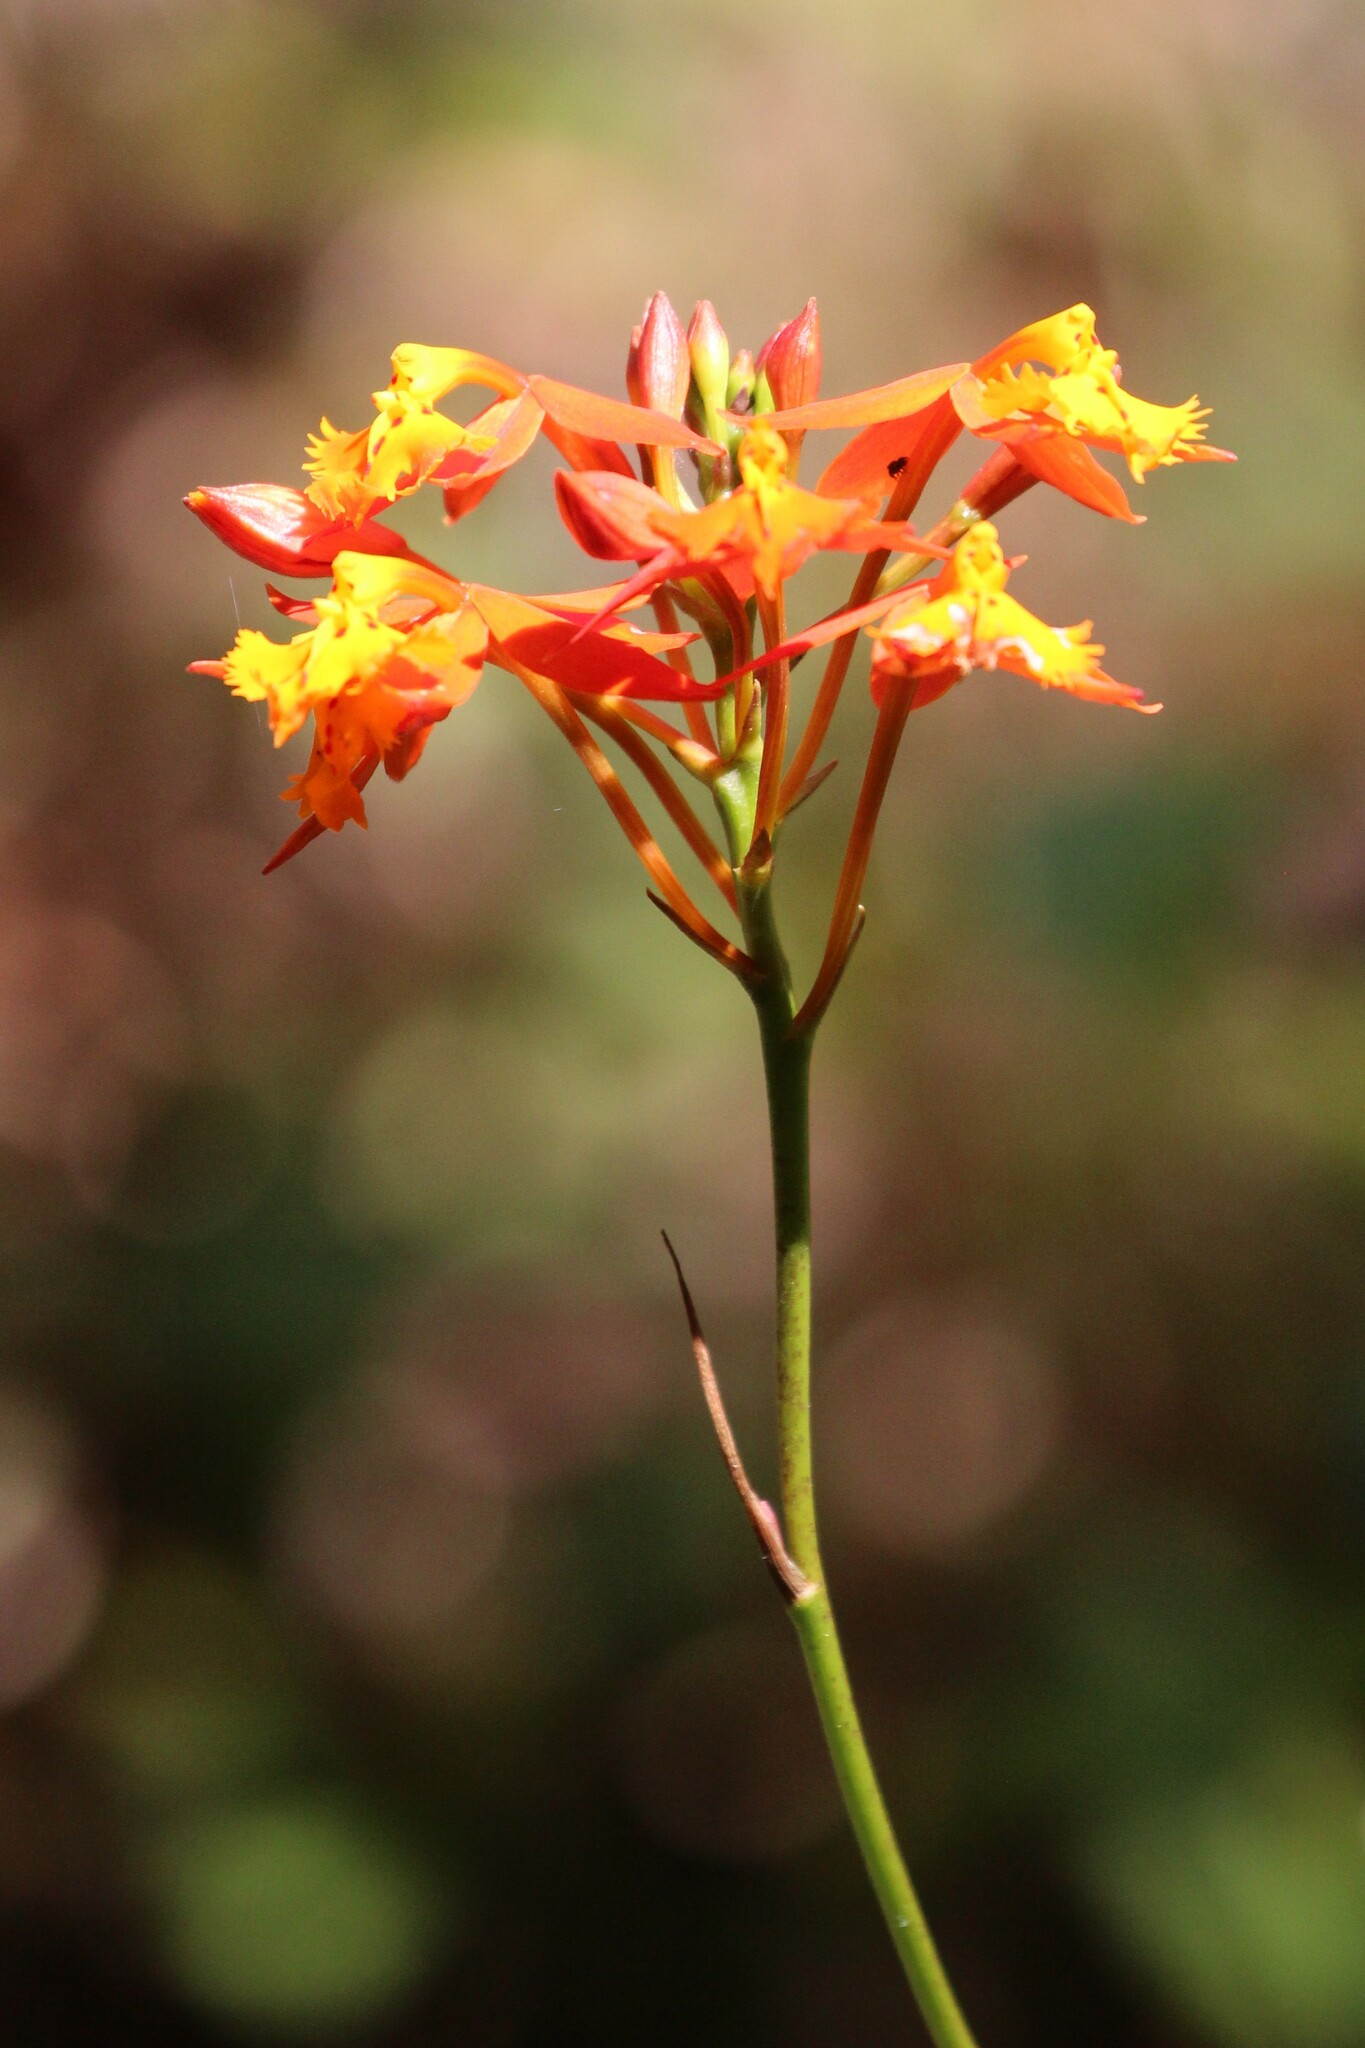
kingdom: Plantae
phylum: Tracheophyta
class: Liliopsida
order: Asparagales
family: Orchidaceae
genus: Epidendrum
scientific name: Epidendrum radicans
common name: Fire star orchid
